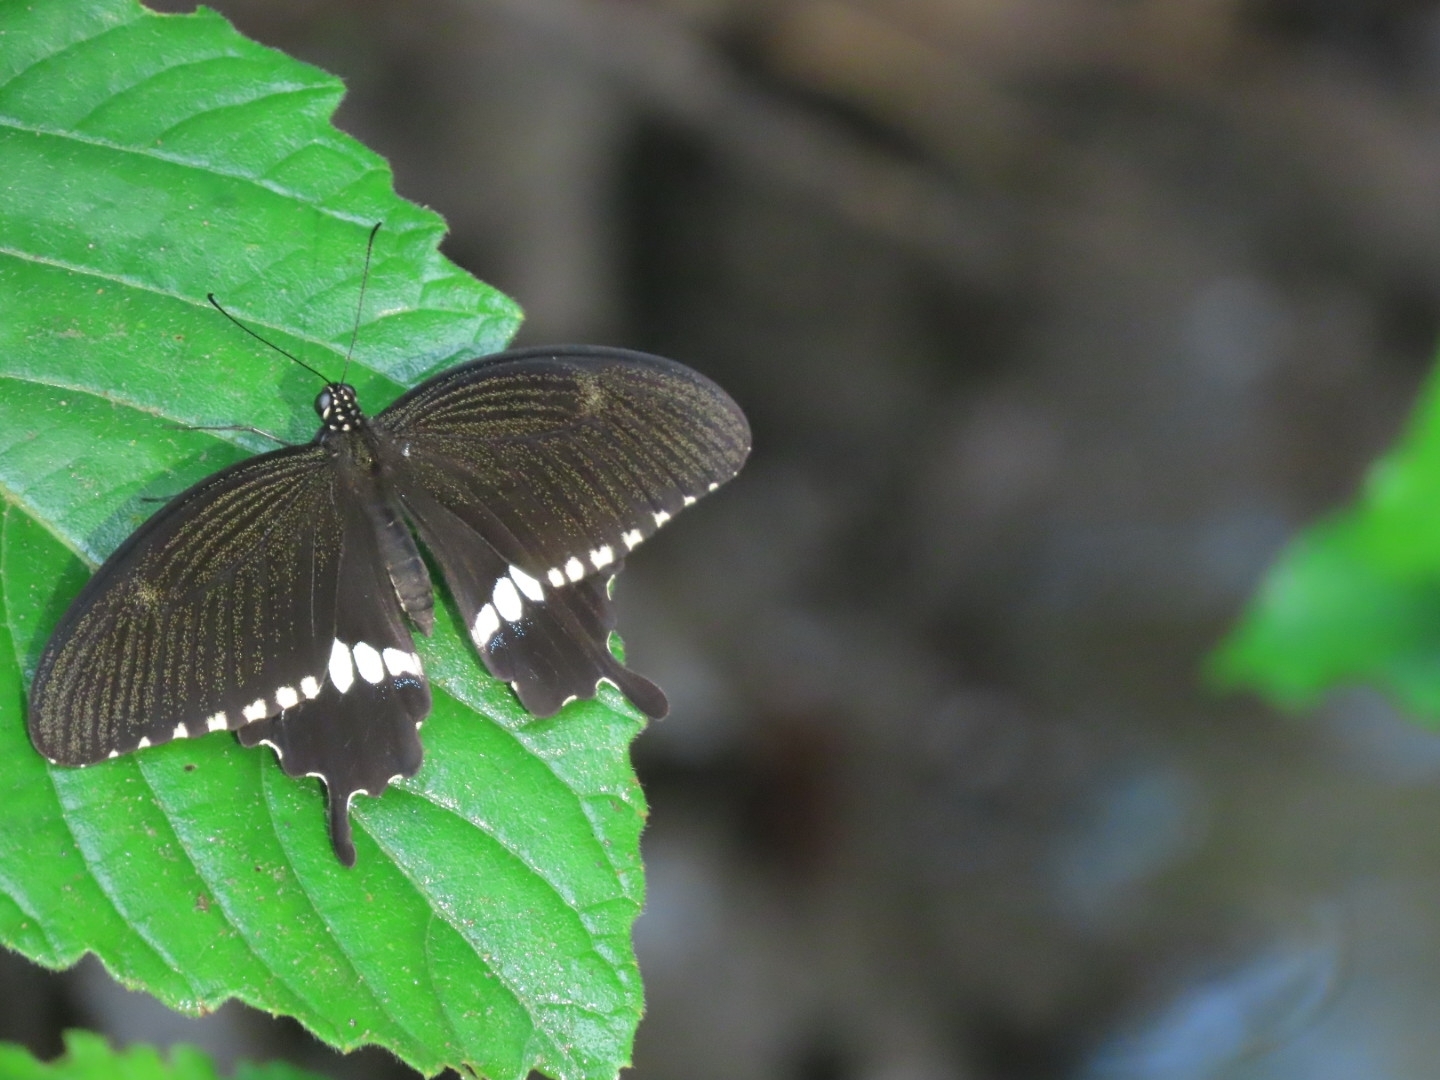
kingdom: Animalia
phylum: Arthropoda
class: Insecta
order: Lepidoptera
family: Papilionidae
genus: Papilio
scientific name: Papilio polytes
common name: Common mormon
